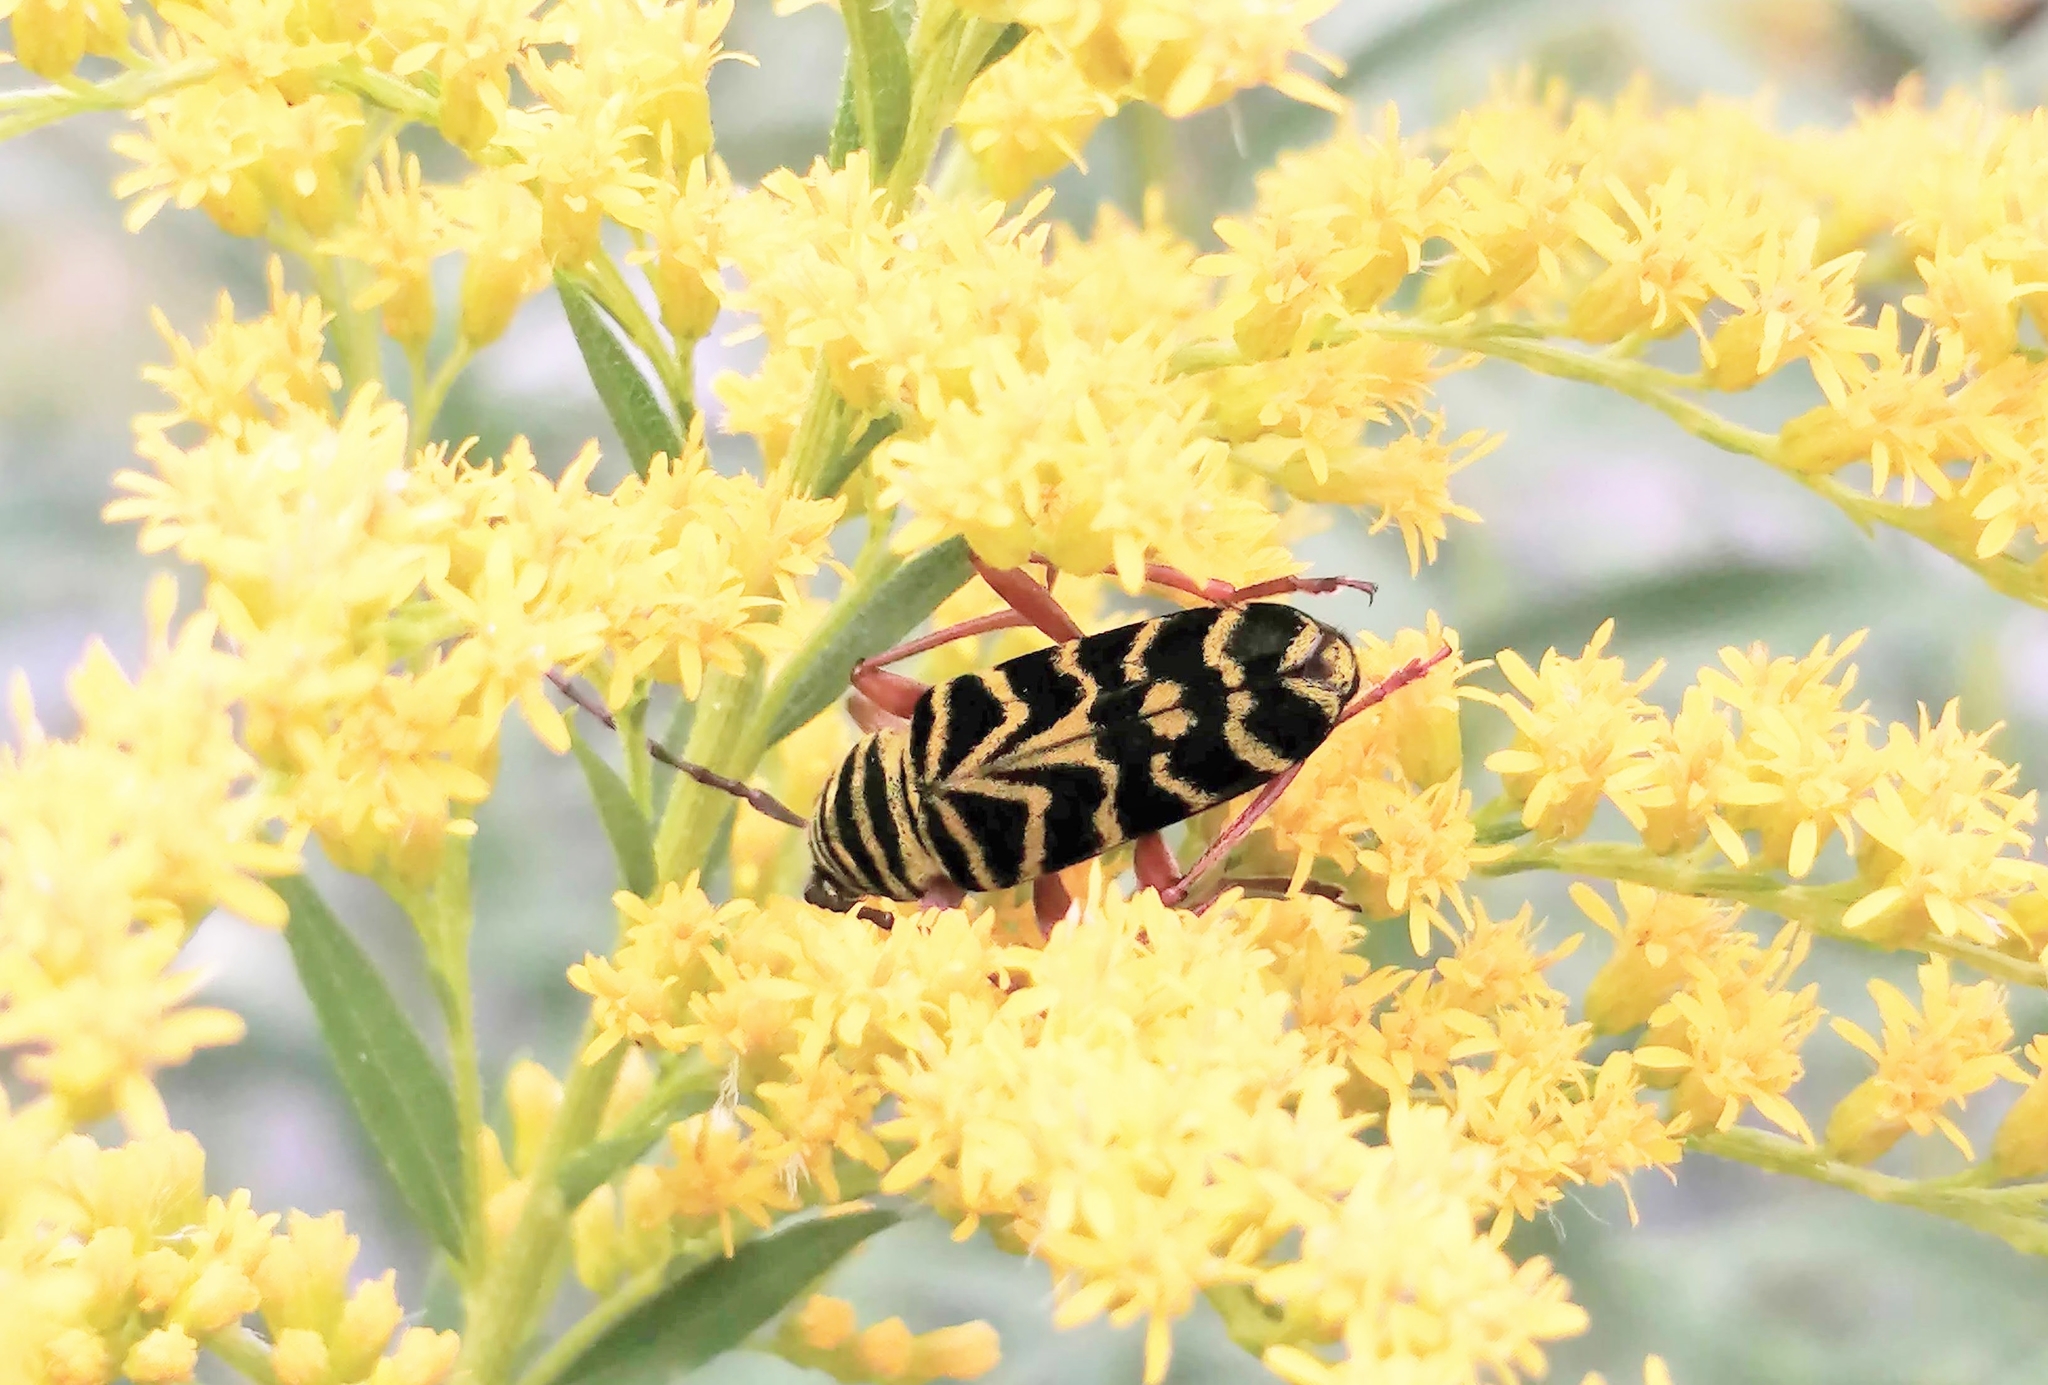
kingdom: Animalia
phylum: Arthropoda
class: Insecta
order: Coleoptera
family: Cerambycidae
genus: Megacyllene
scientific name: Megacyllene robiniae
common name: Locust borer
